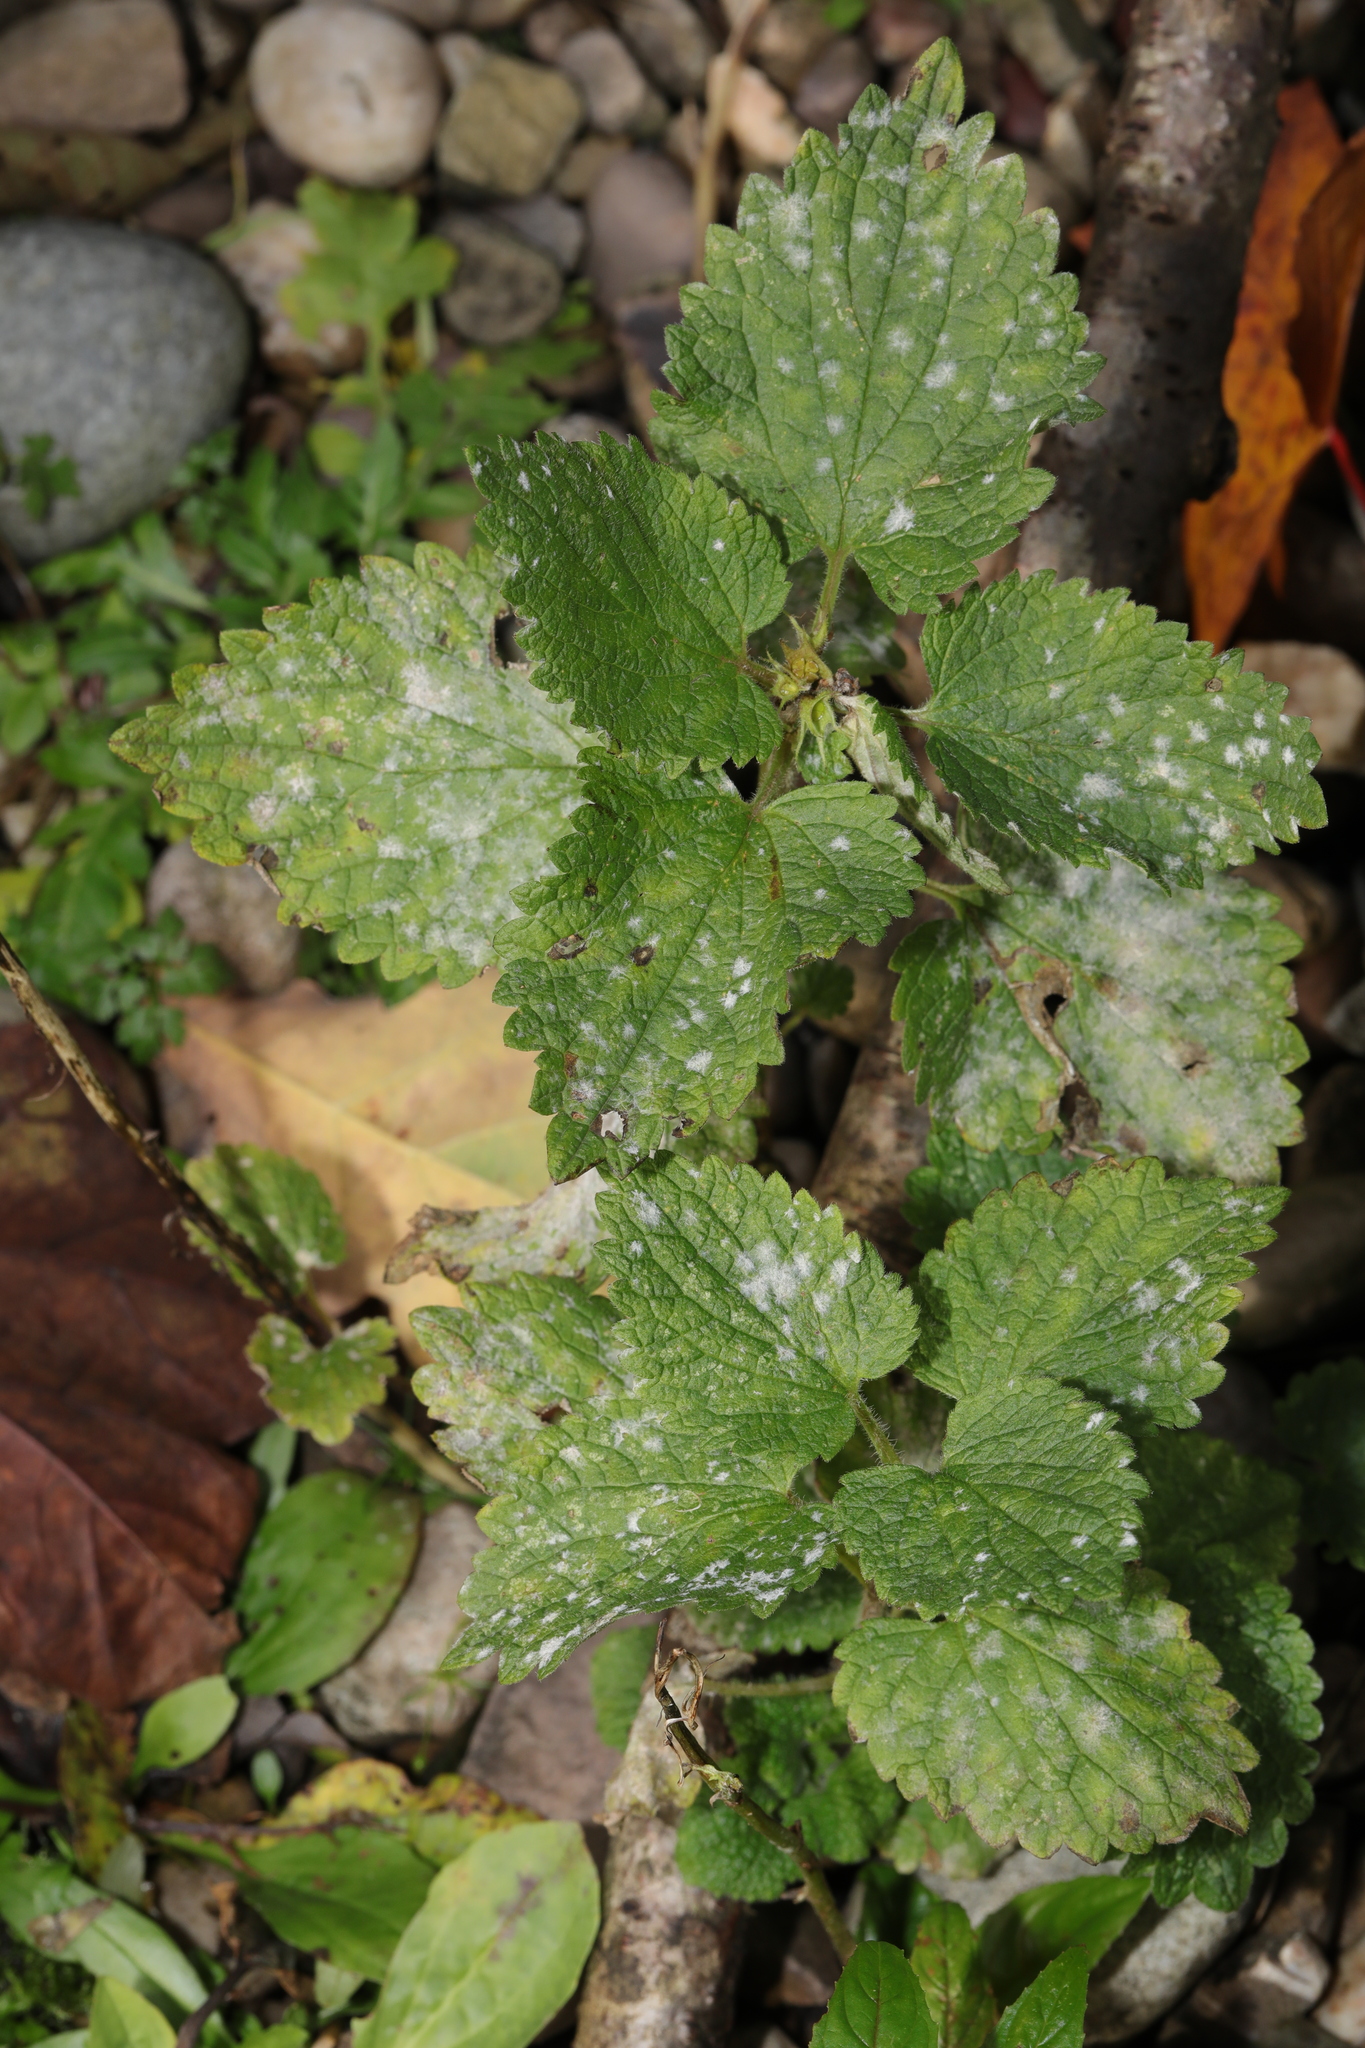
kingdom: Plantae
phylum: Tracheophyta
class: Magnoliopsida
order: Lamiales
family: Lamiaceae
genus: Lamium
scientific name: Lamium album
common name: White dead-nettle
